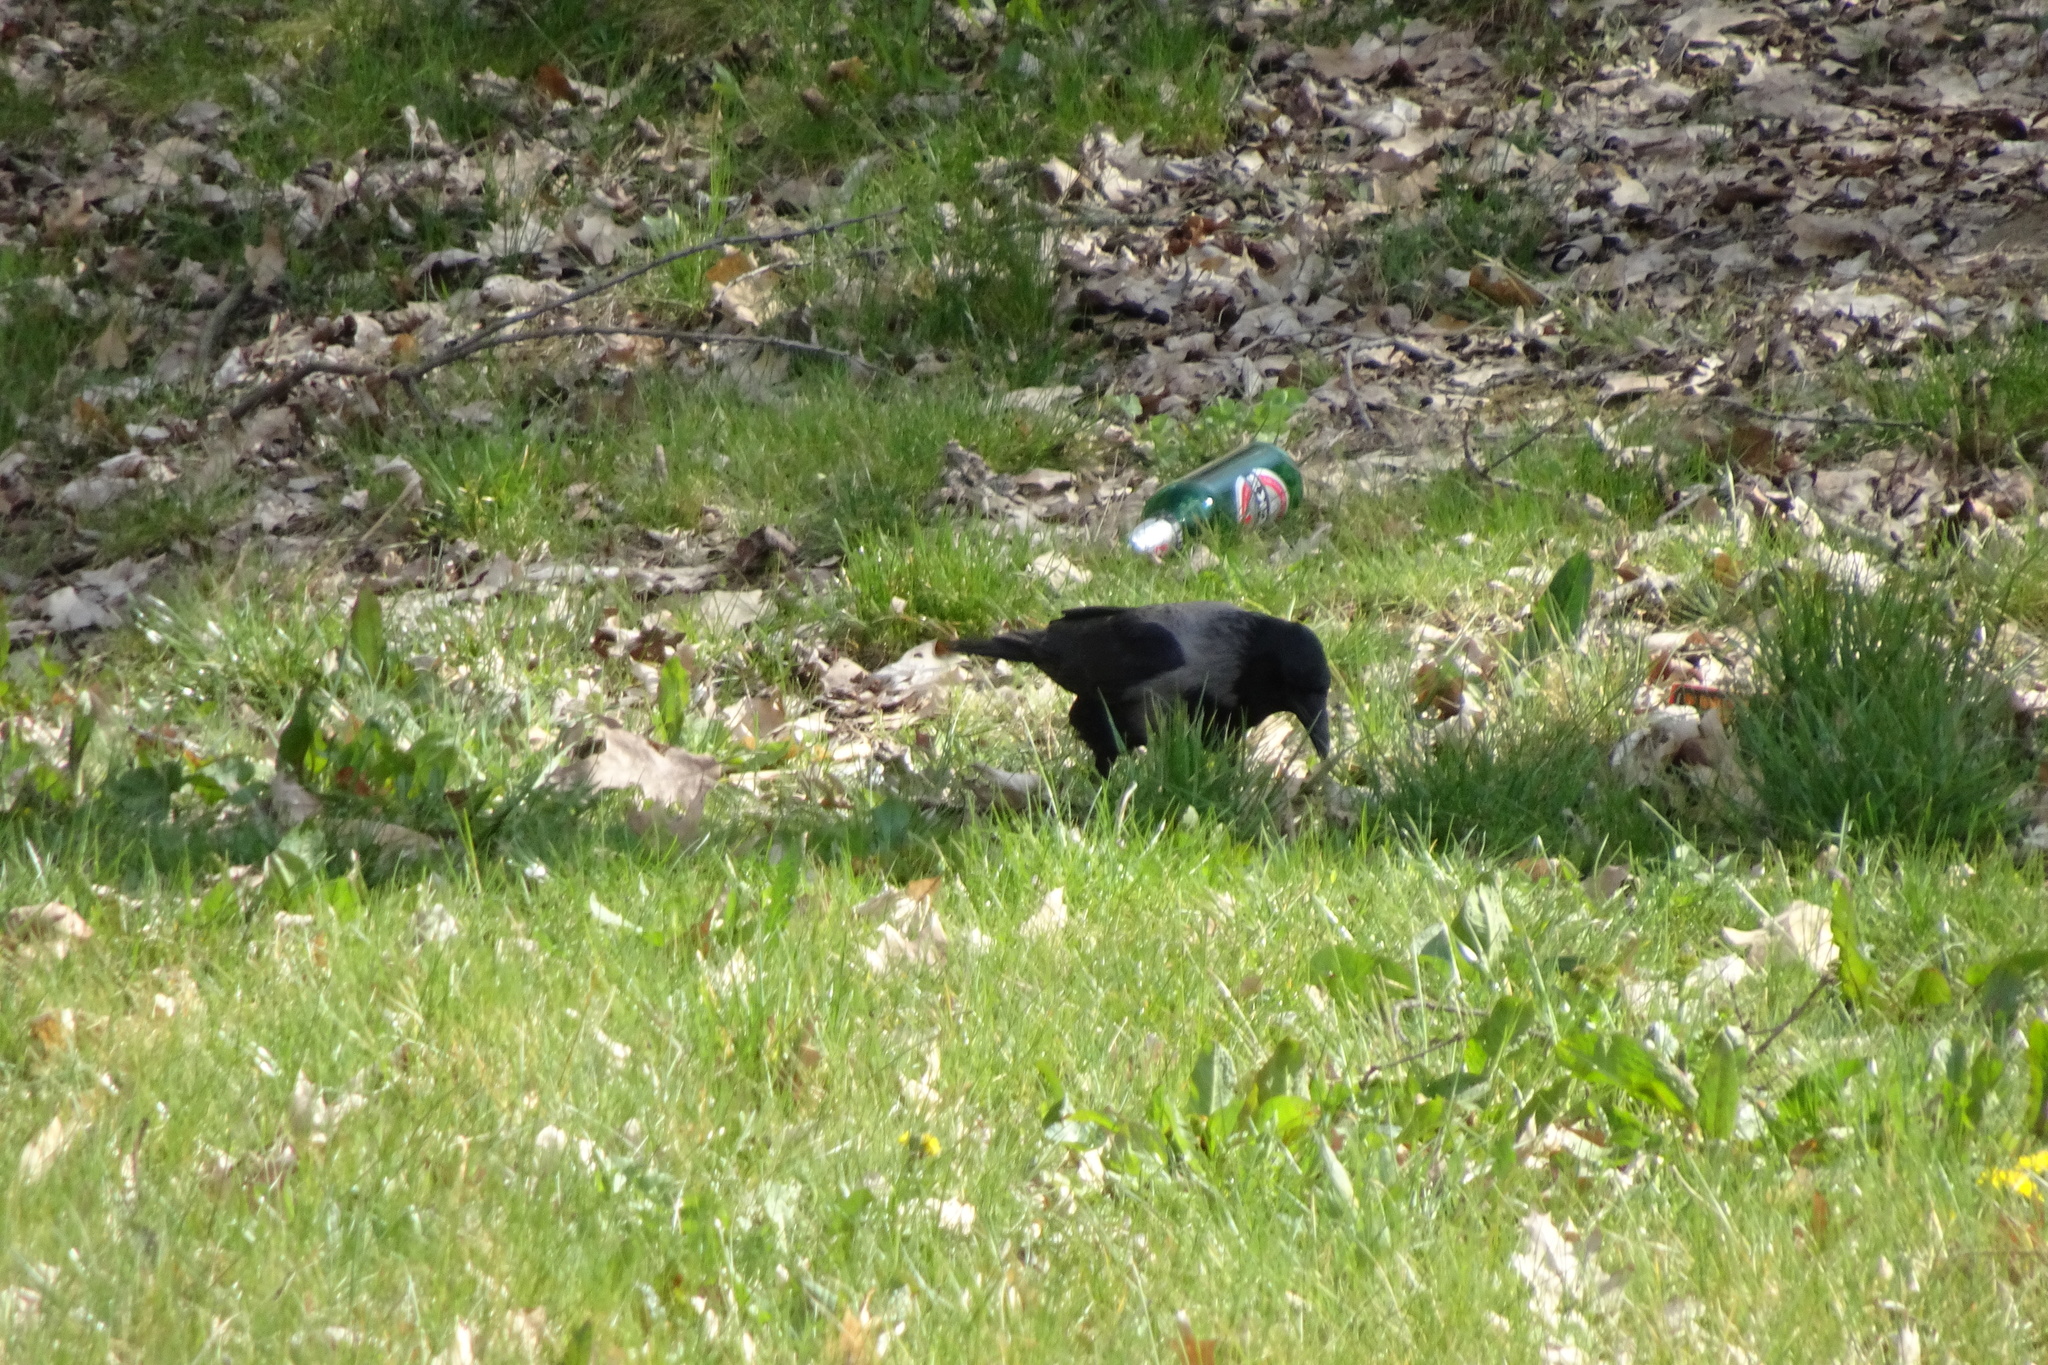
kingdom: Animalia
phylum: Chordata
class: Aves
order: Passeriformes
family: Corvidae
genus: Corvus
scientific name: Corvus corone
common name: Carrion crow
